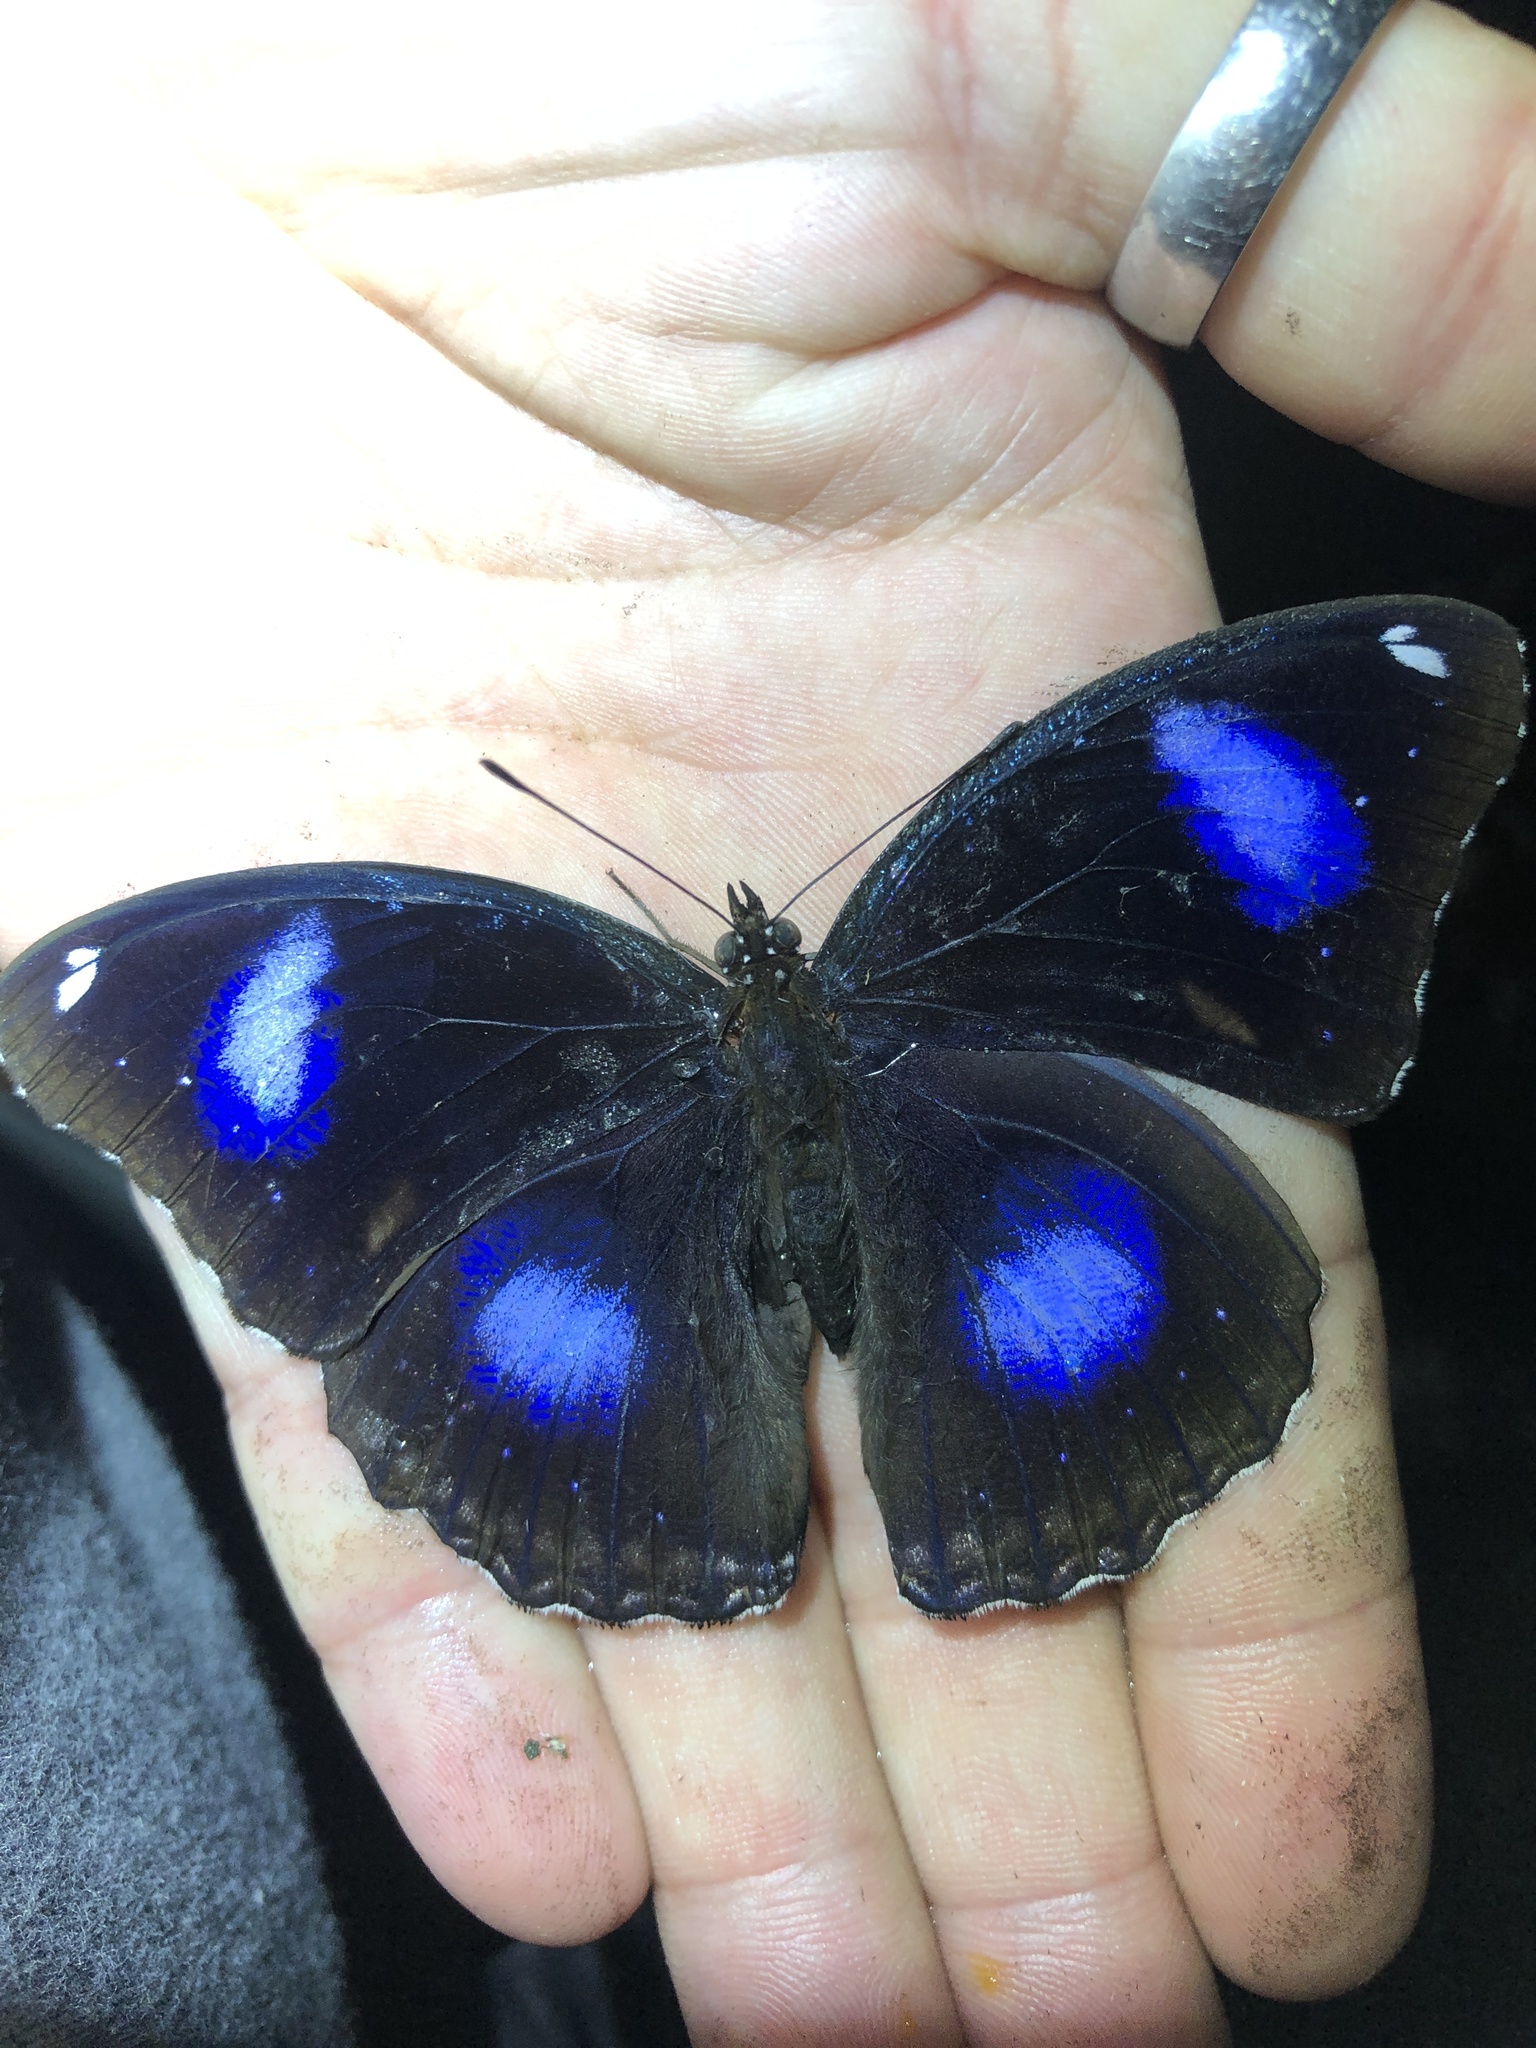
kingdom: Animalia
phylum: Arthropoda
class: Insecta
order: Lepidoptera
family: Nymphalidae
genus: Hypolimnas
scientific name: Hypolimnas bolina
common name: Great eggfly
